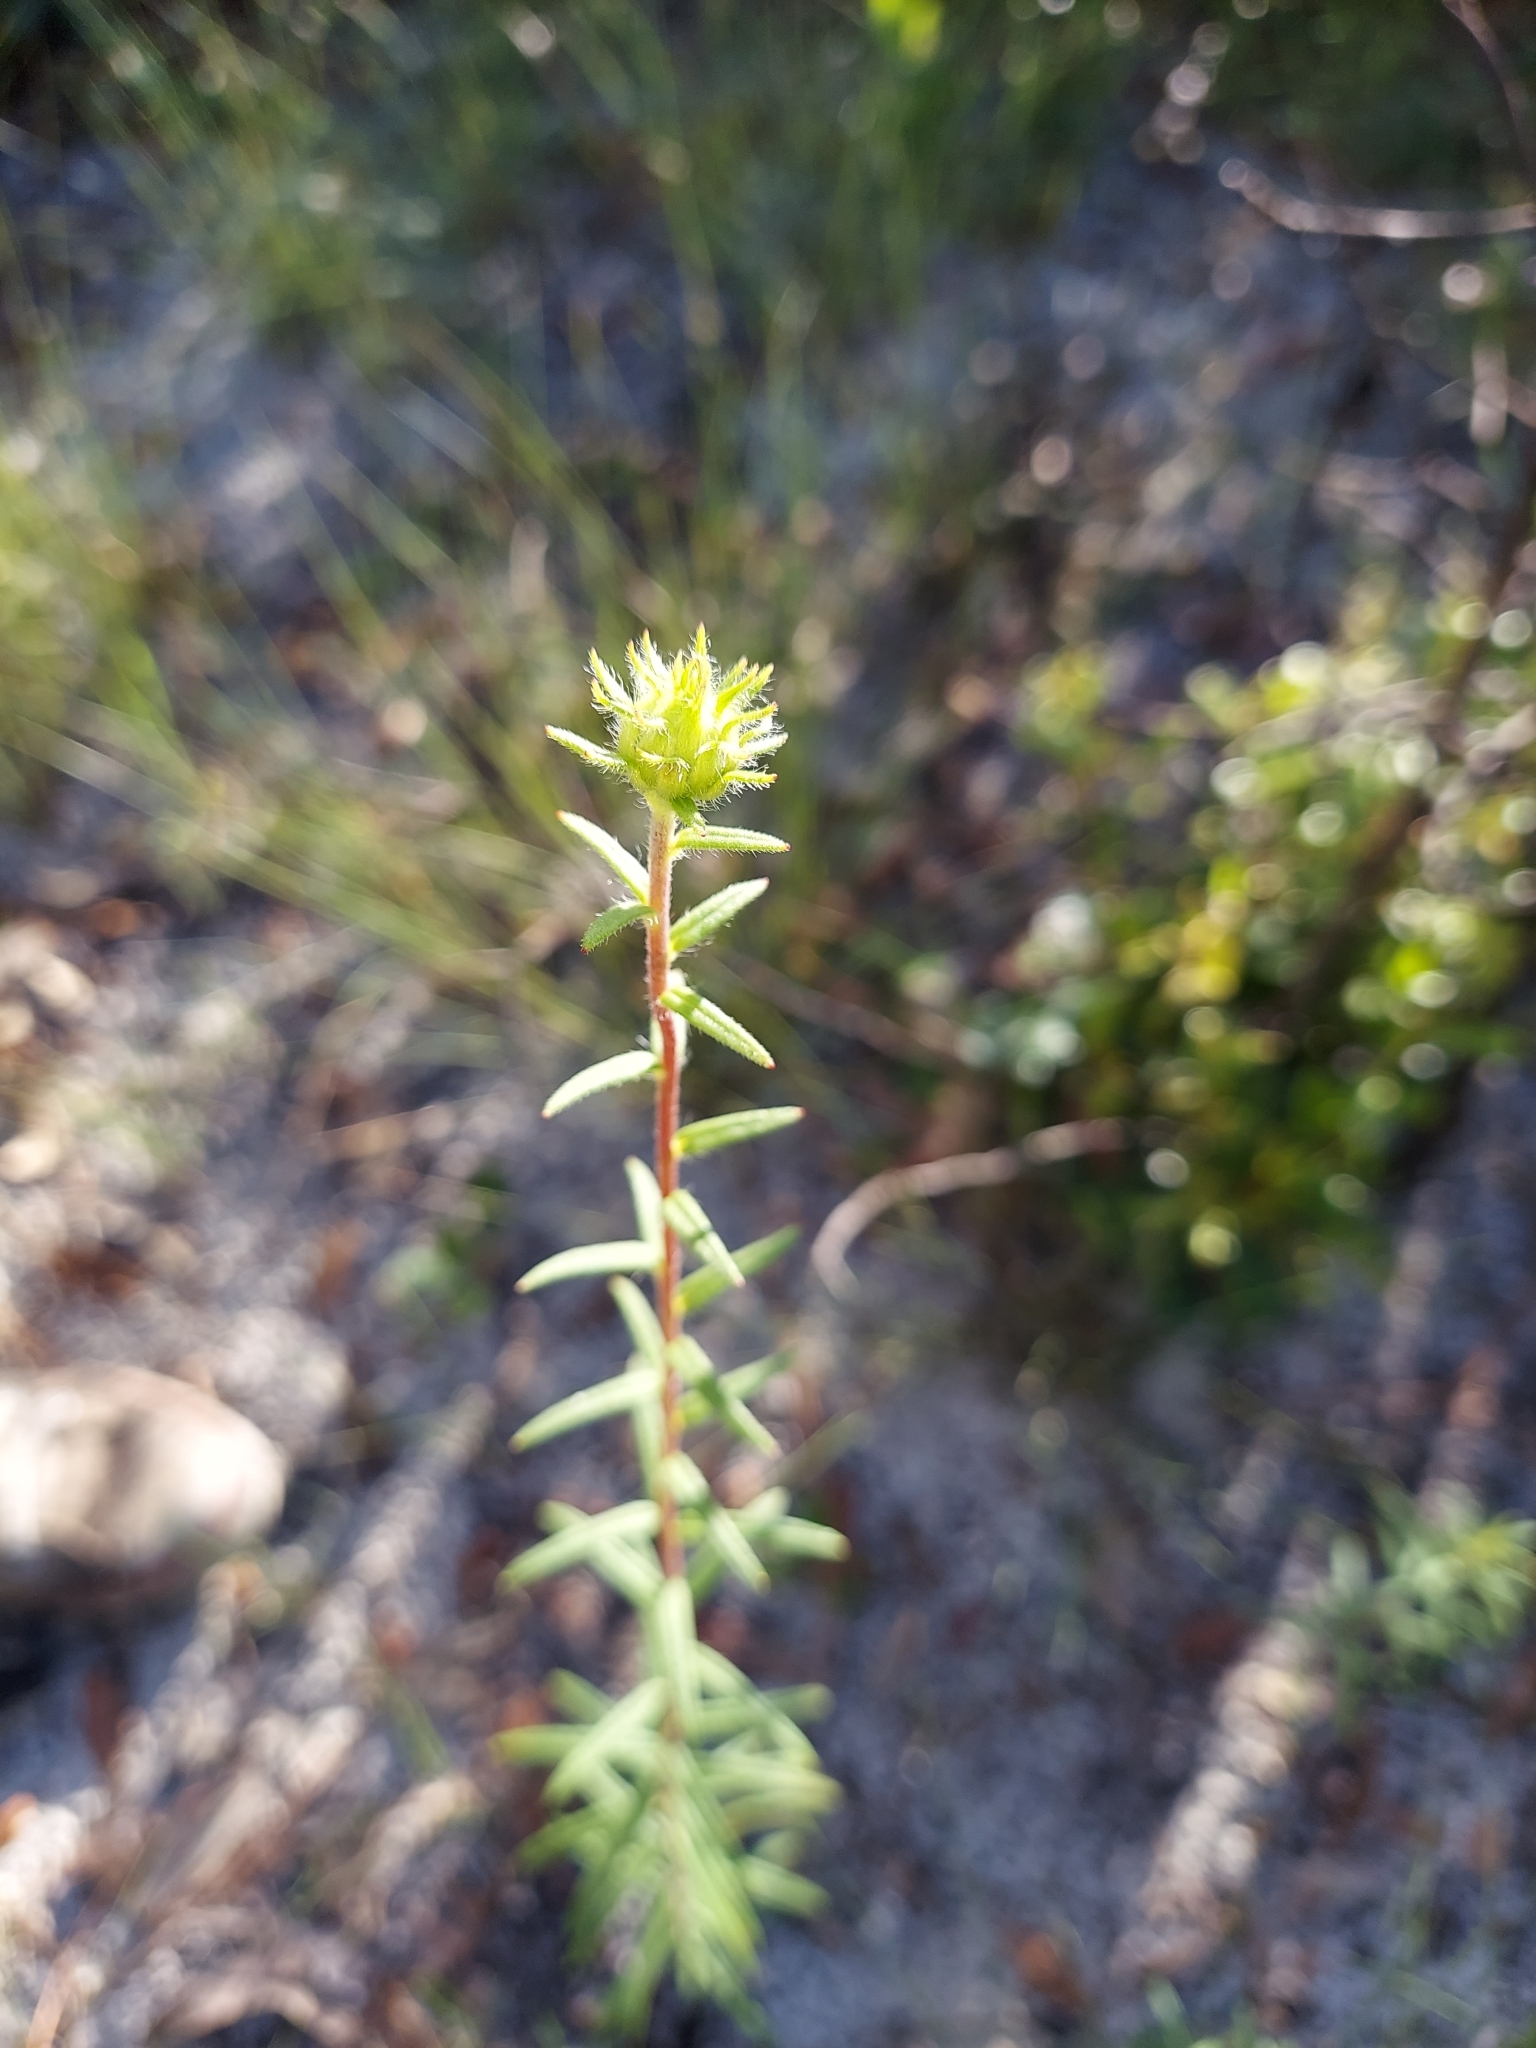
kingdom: Plantae
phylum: Tracheophyta
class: Magnoliopsida
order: Asterales
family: Asteraceae
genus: Phoebanthus
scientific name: Phoebanthus grandiflora
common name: Florida false sunflower
